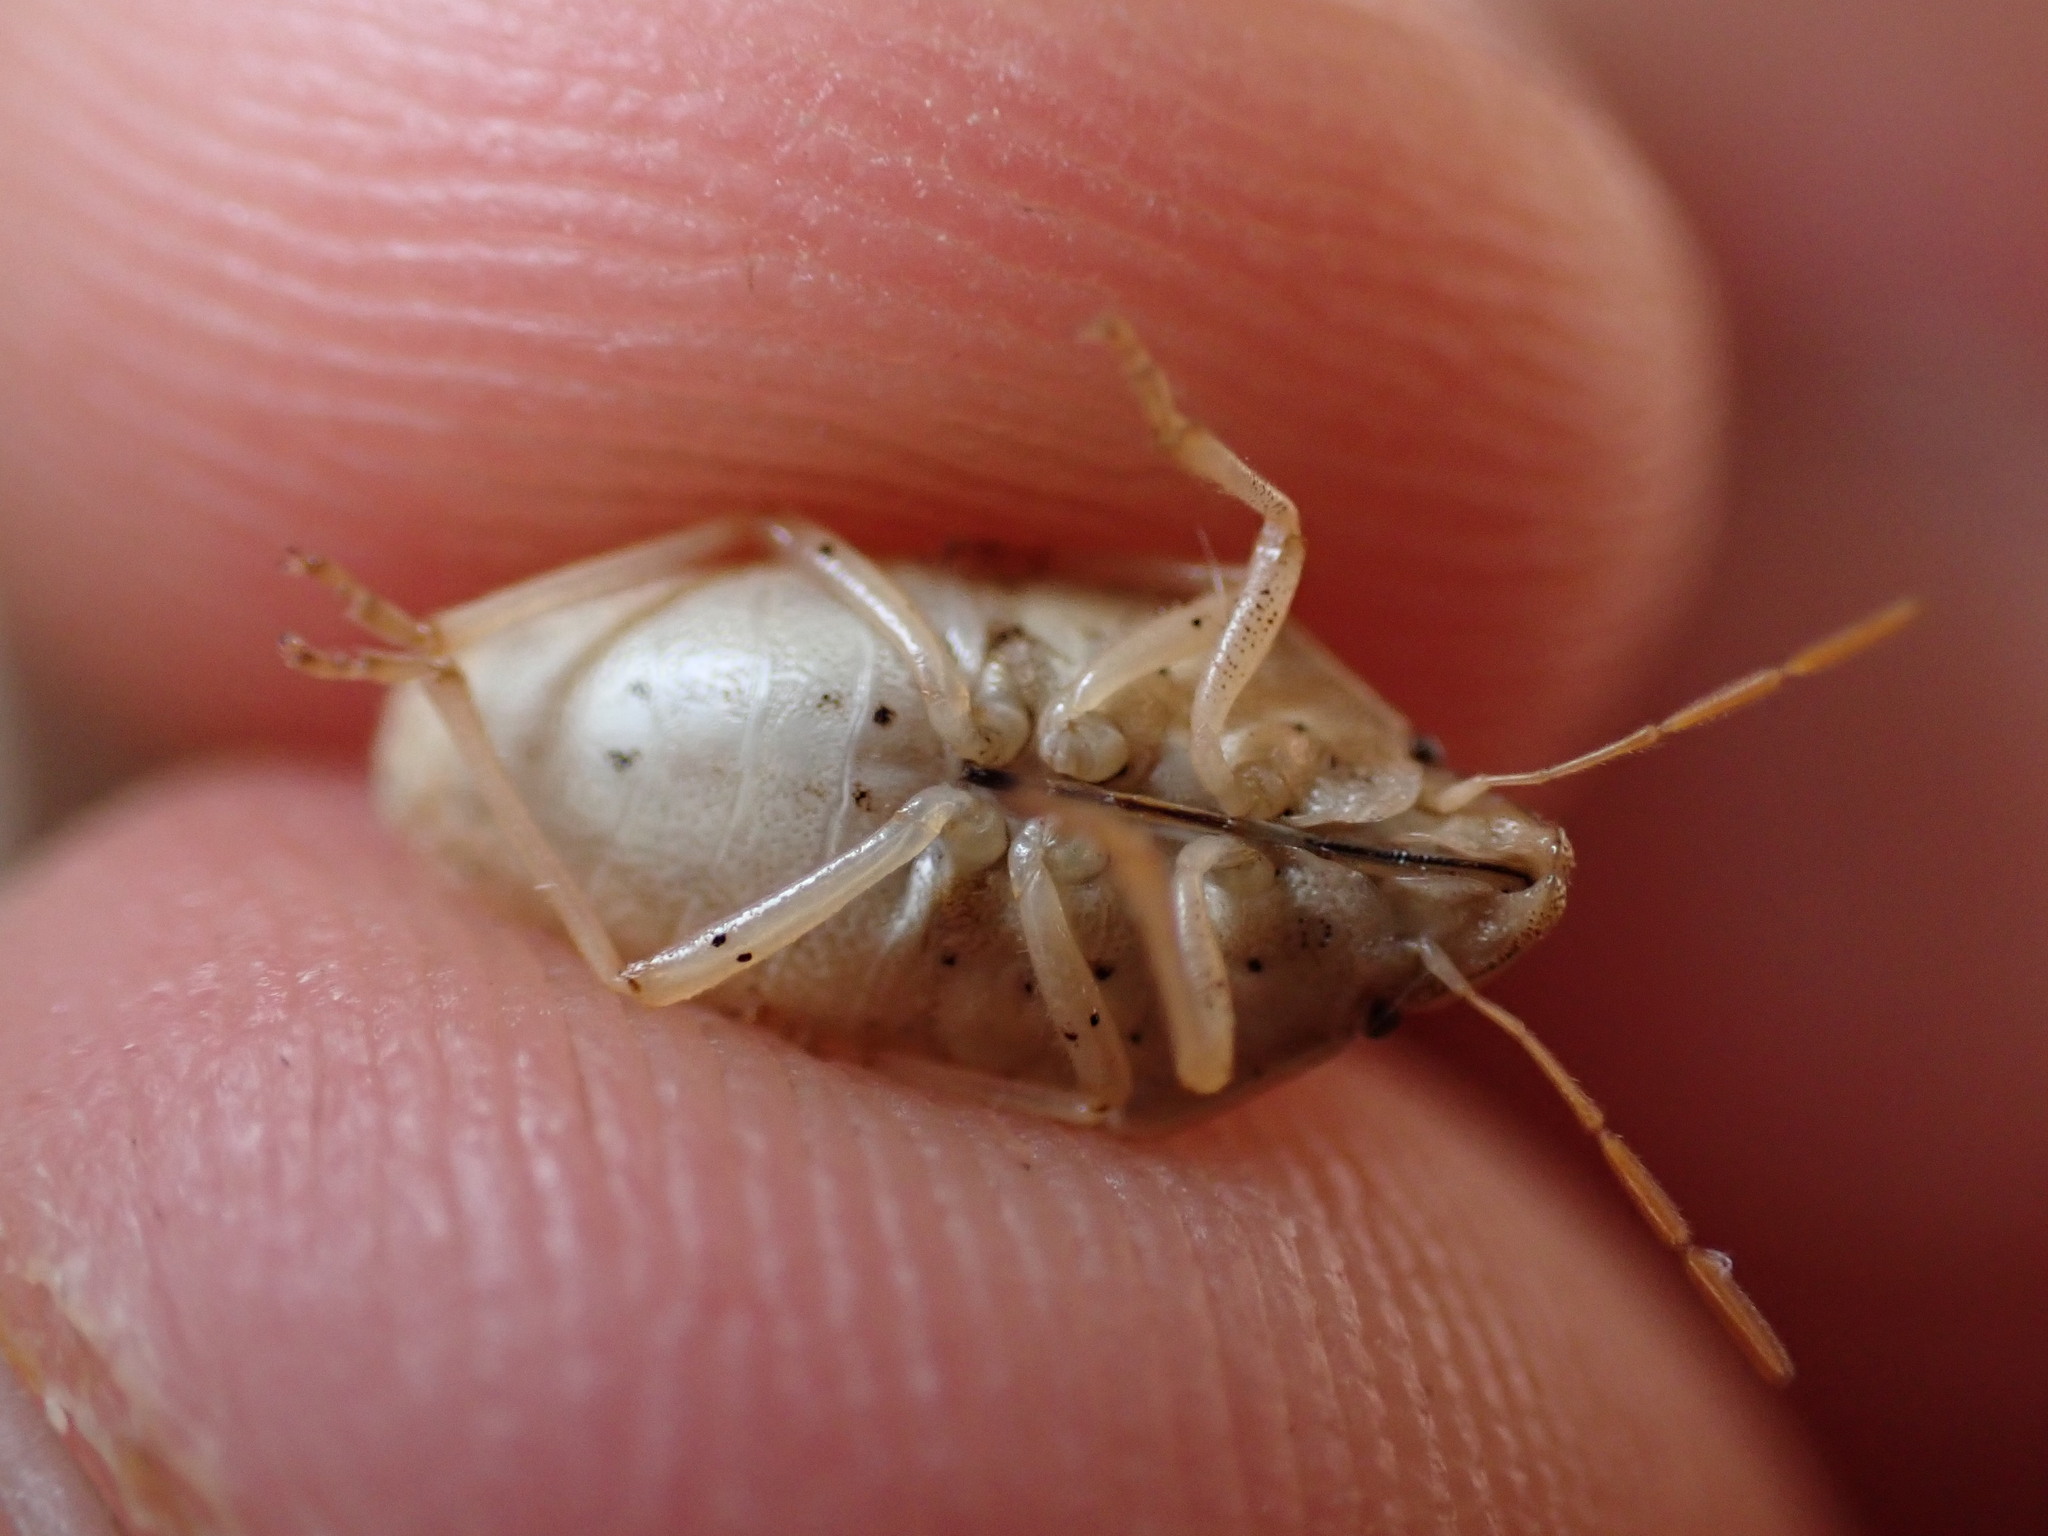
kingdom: Animalia
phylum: Arthropoda
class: Insecta
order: Hemiptera
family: Pentatomidae
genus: Aelia
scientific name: Aelia acuminata
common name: Bishop's mitre
